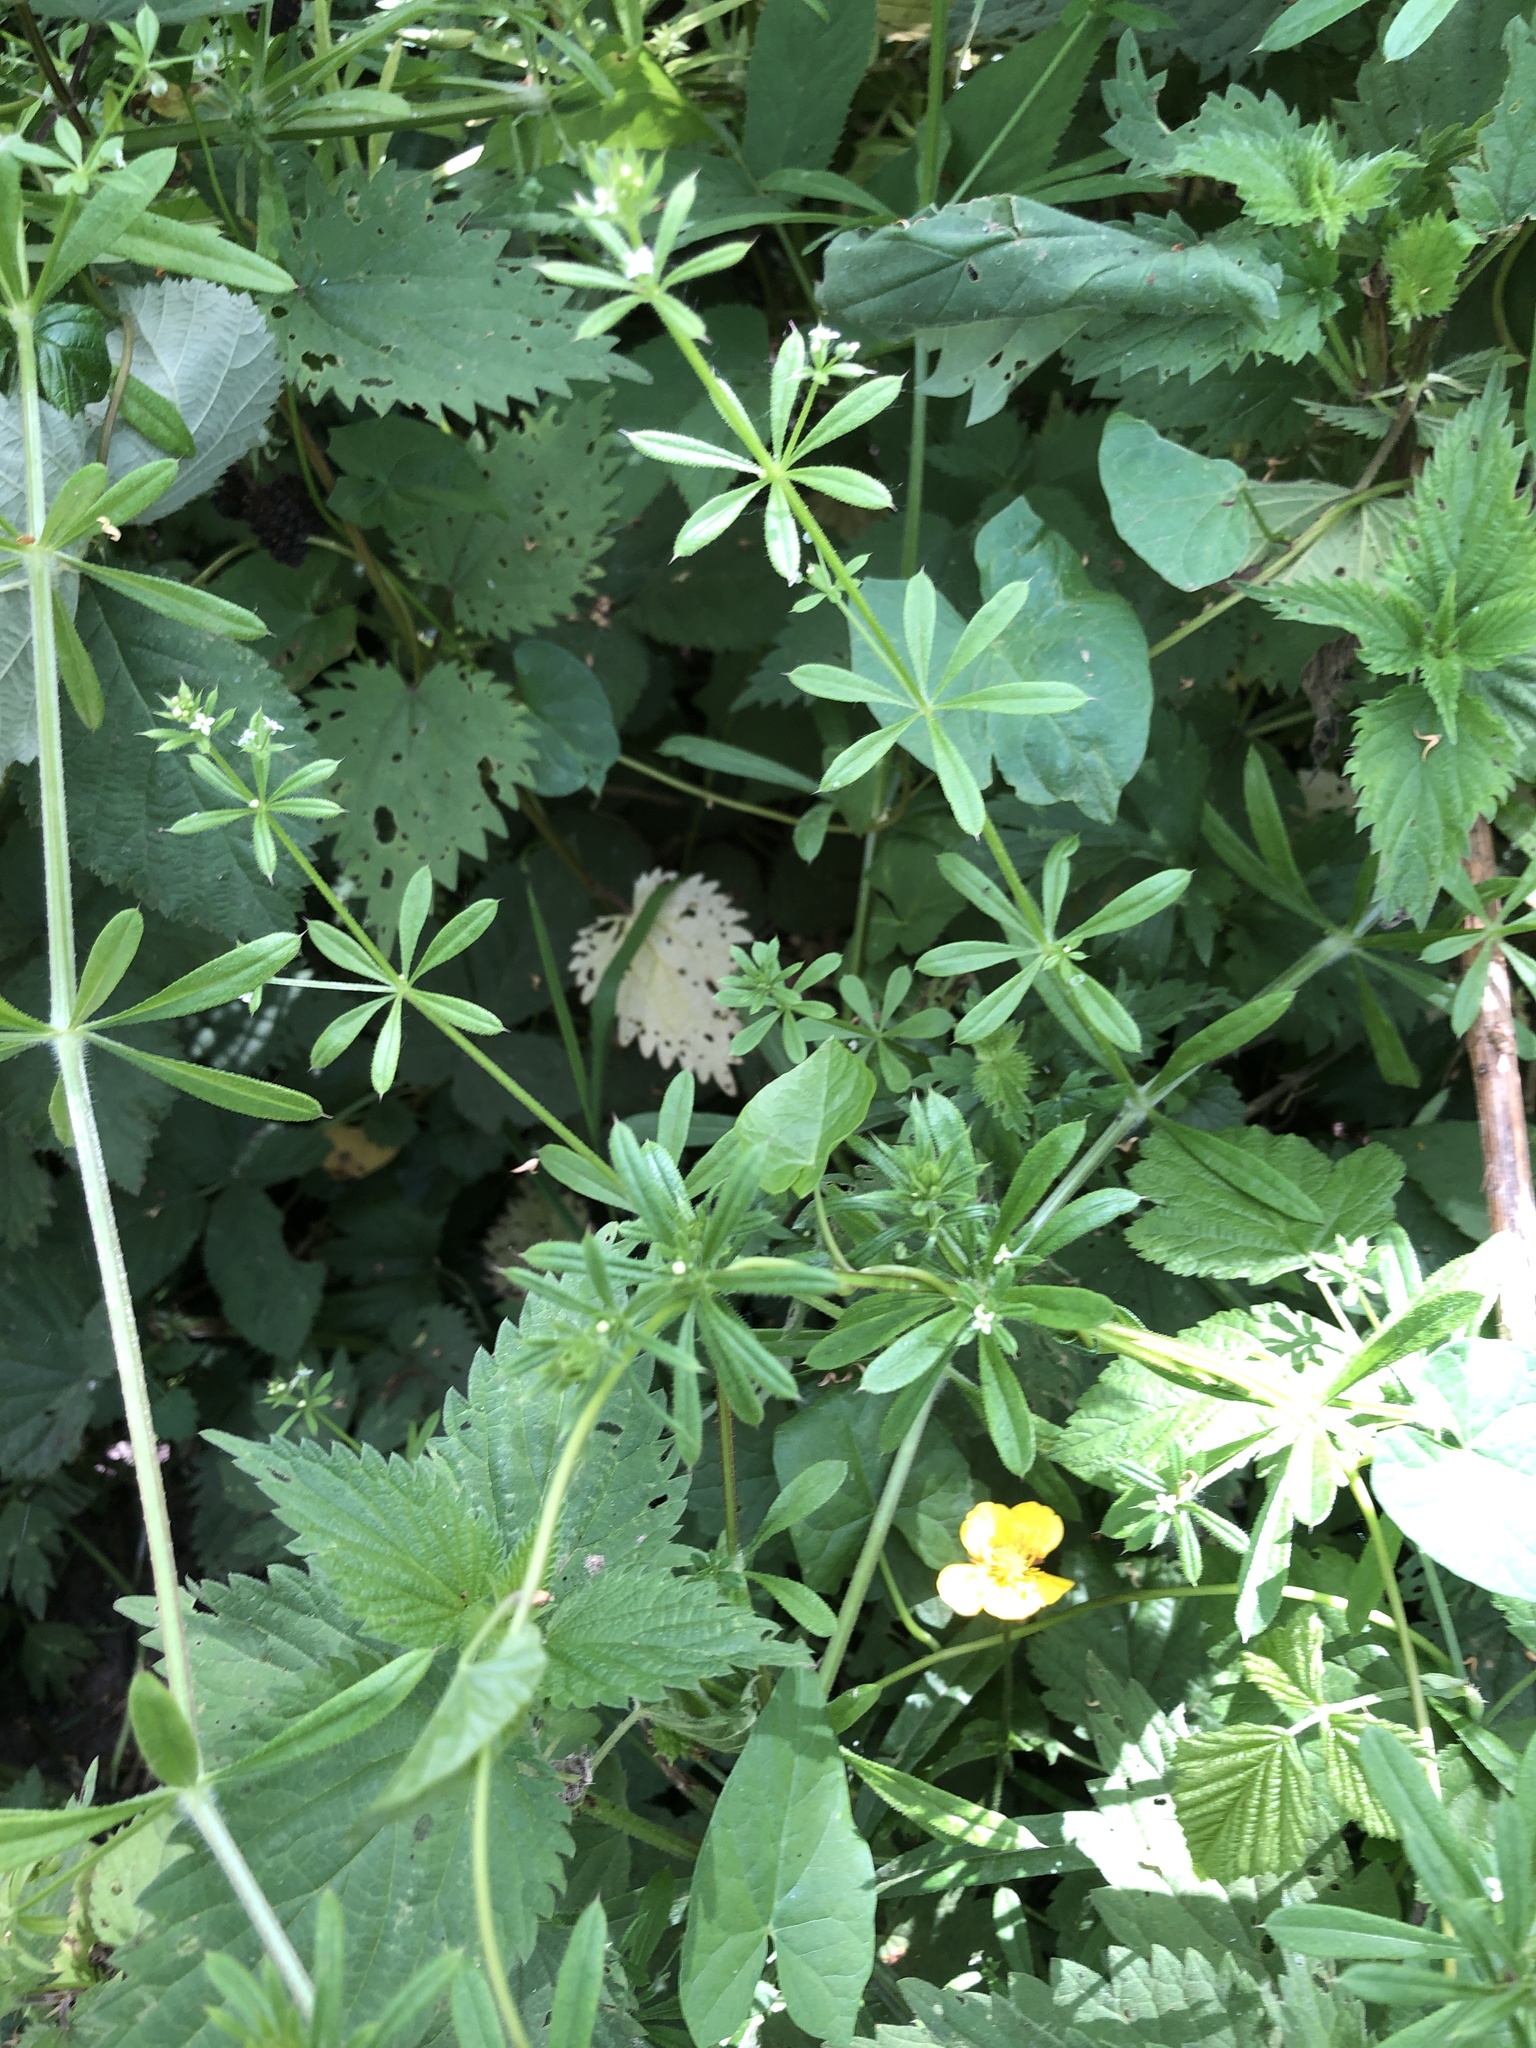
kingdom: Plantae
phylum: Tracheophyta
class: Magnoliopsida
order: Gentianales
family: Rubiaceae
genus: Galium
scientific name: Galium aparine
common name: Cleavers
